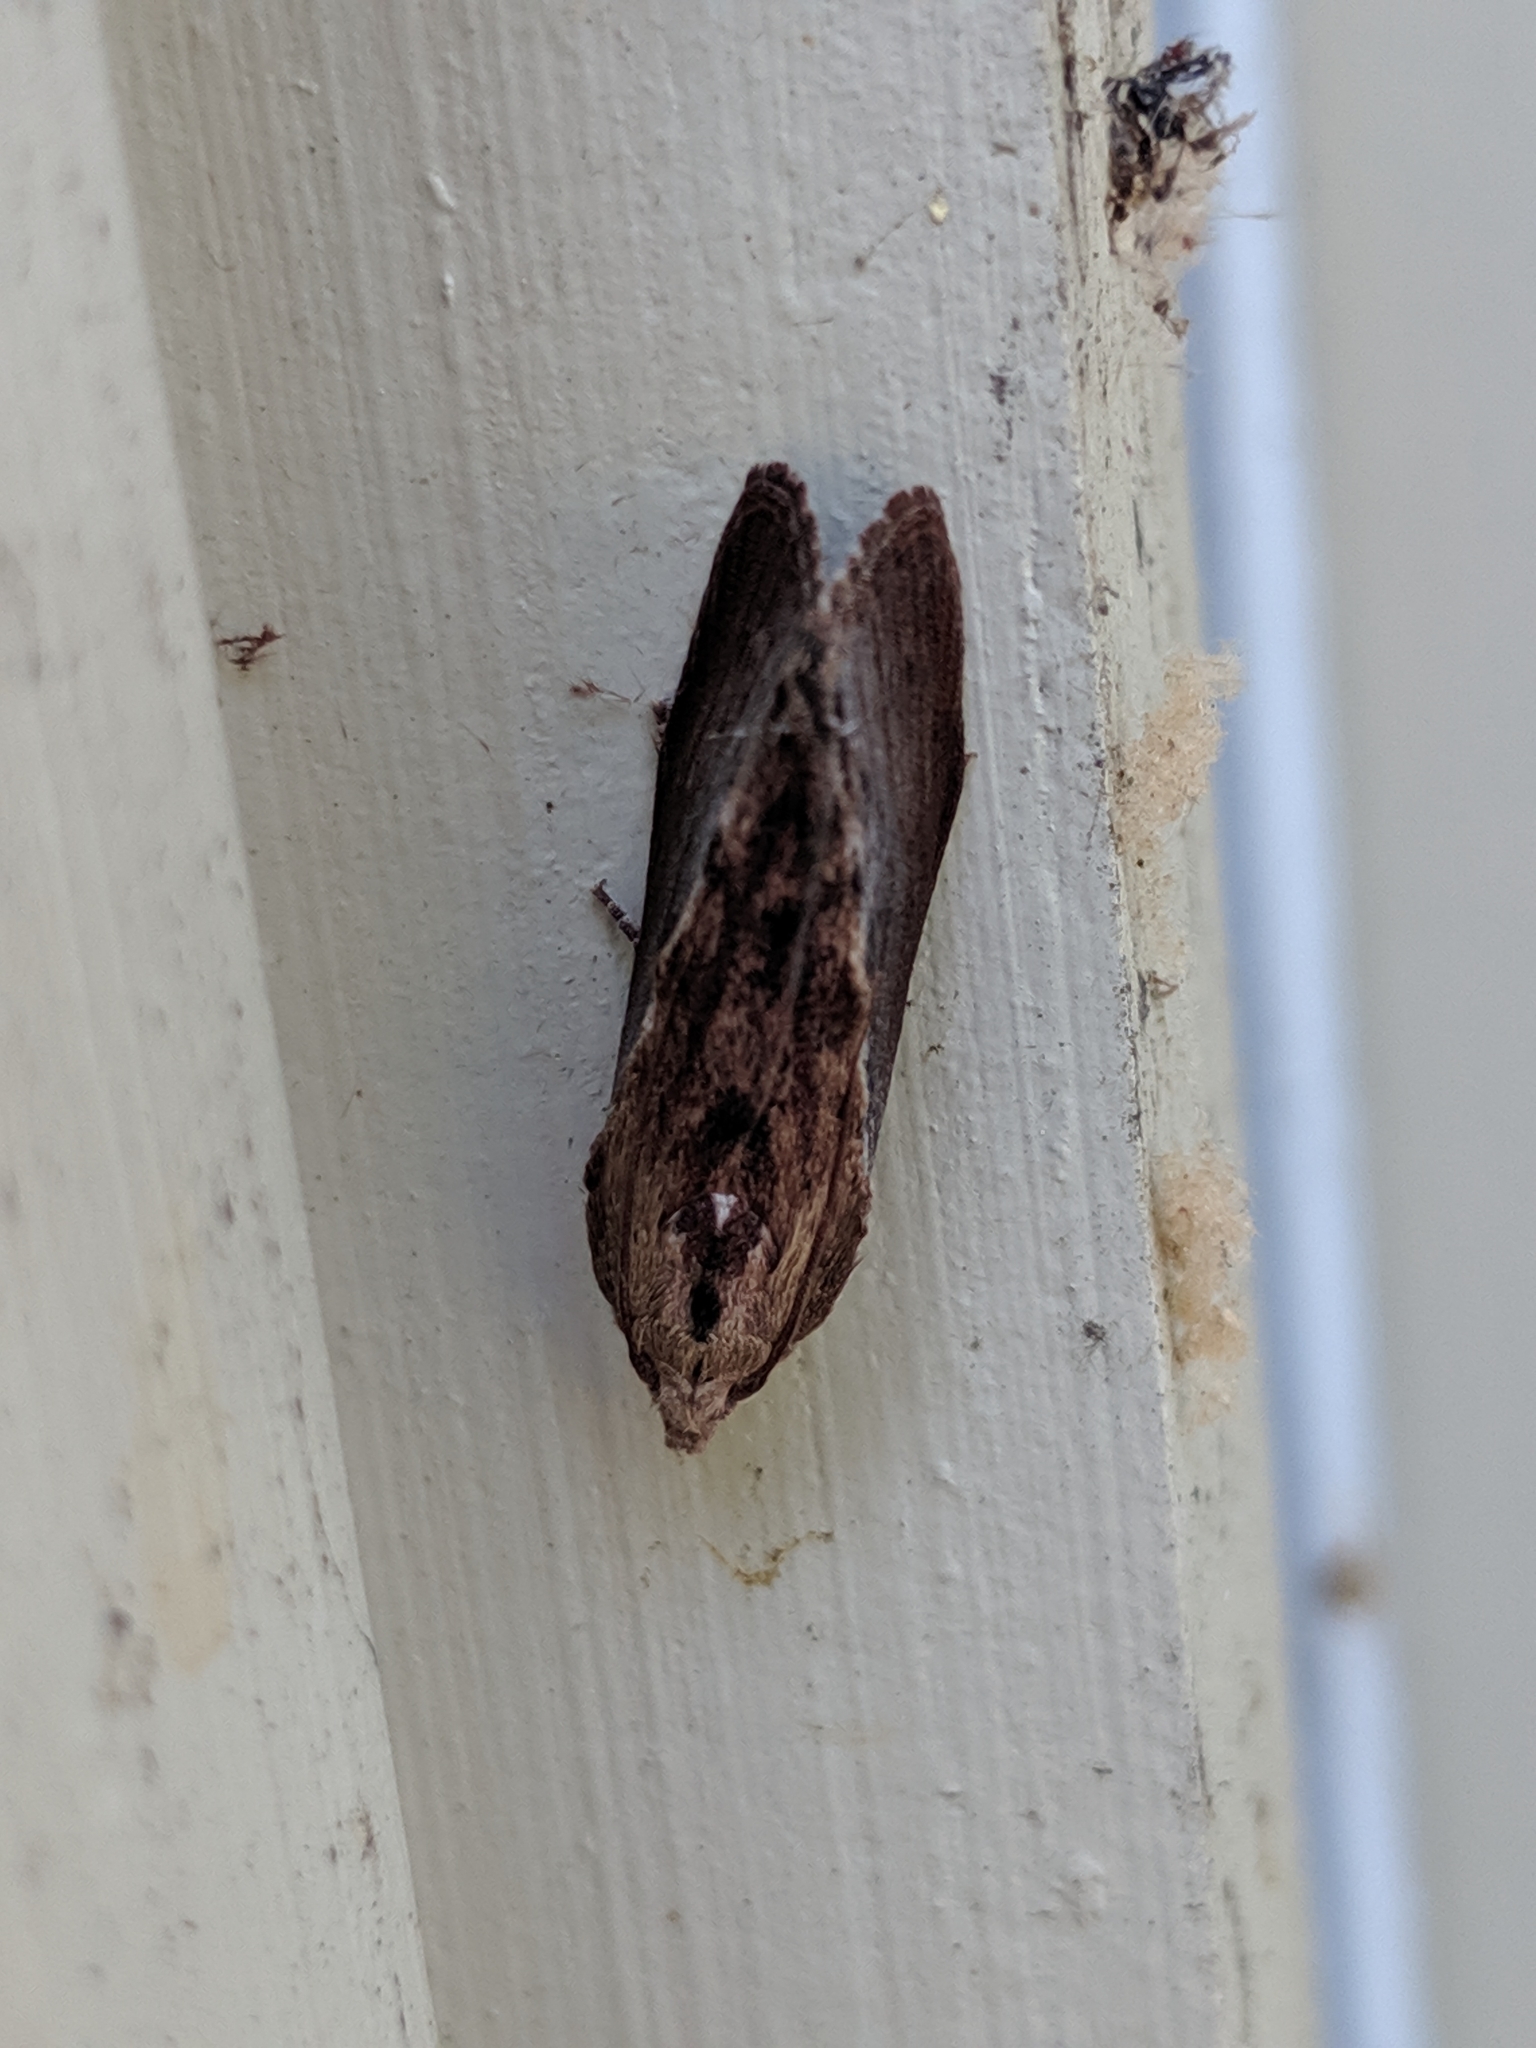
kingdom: Animalia
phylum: Arthropoda
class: Insecta
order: Lepidoptera
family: Pyralidae
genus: Galleria
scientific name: Galleria mellonella
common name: Greater wax moth
